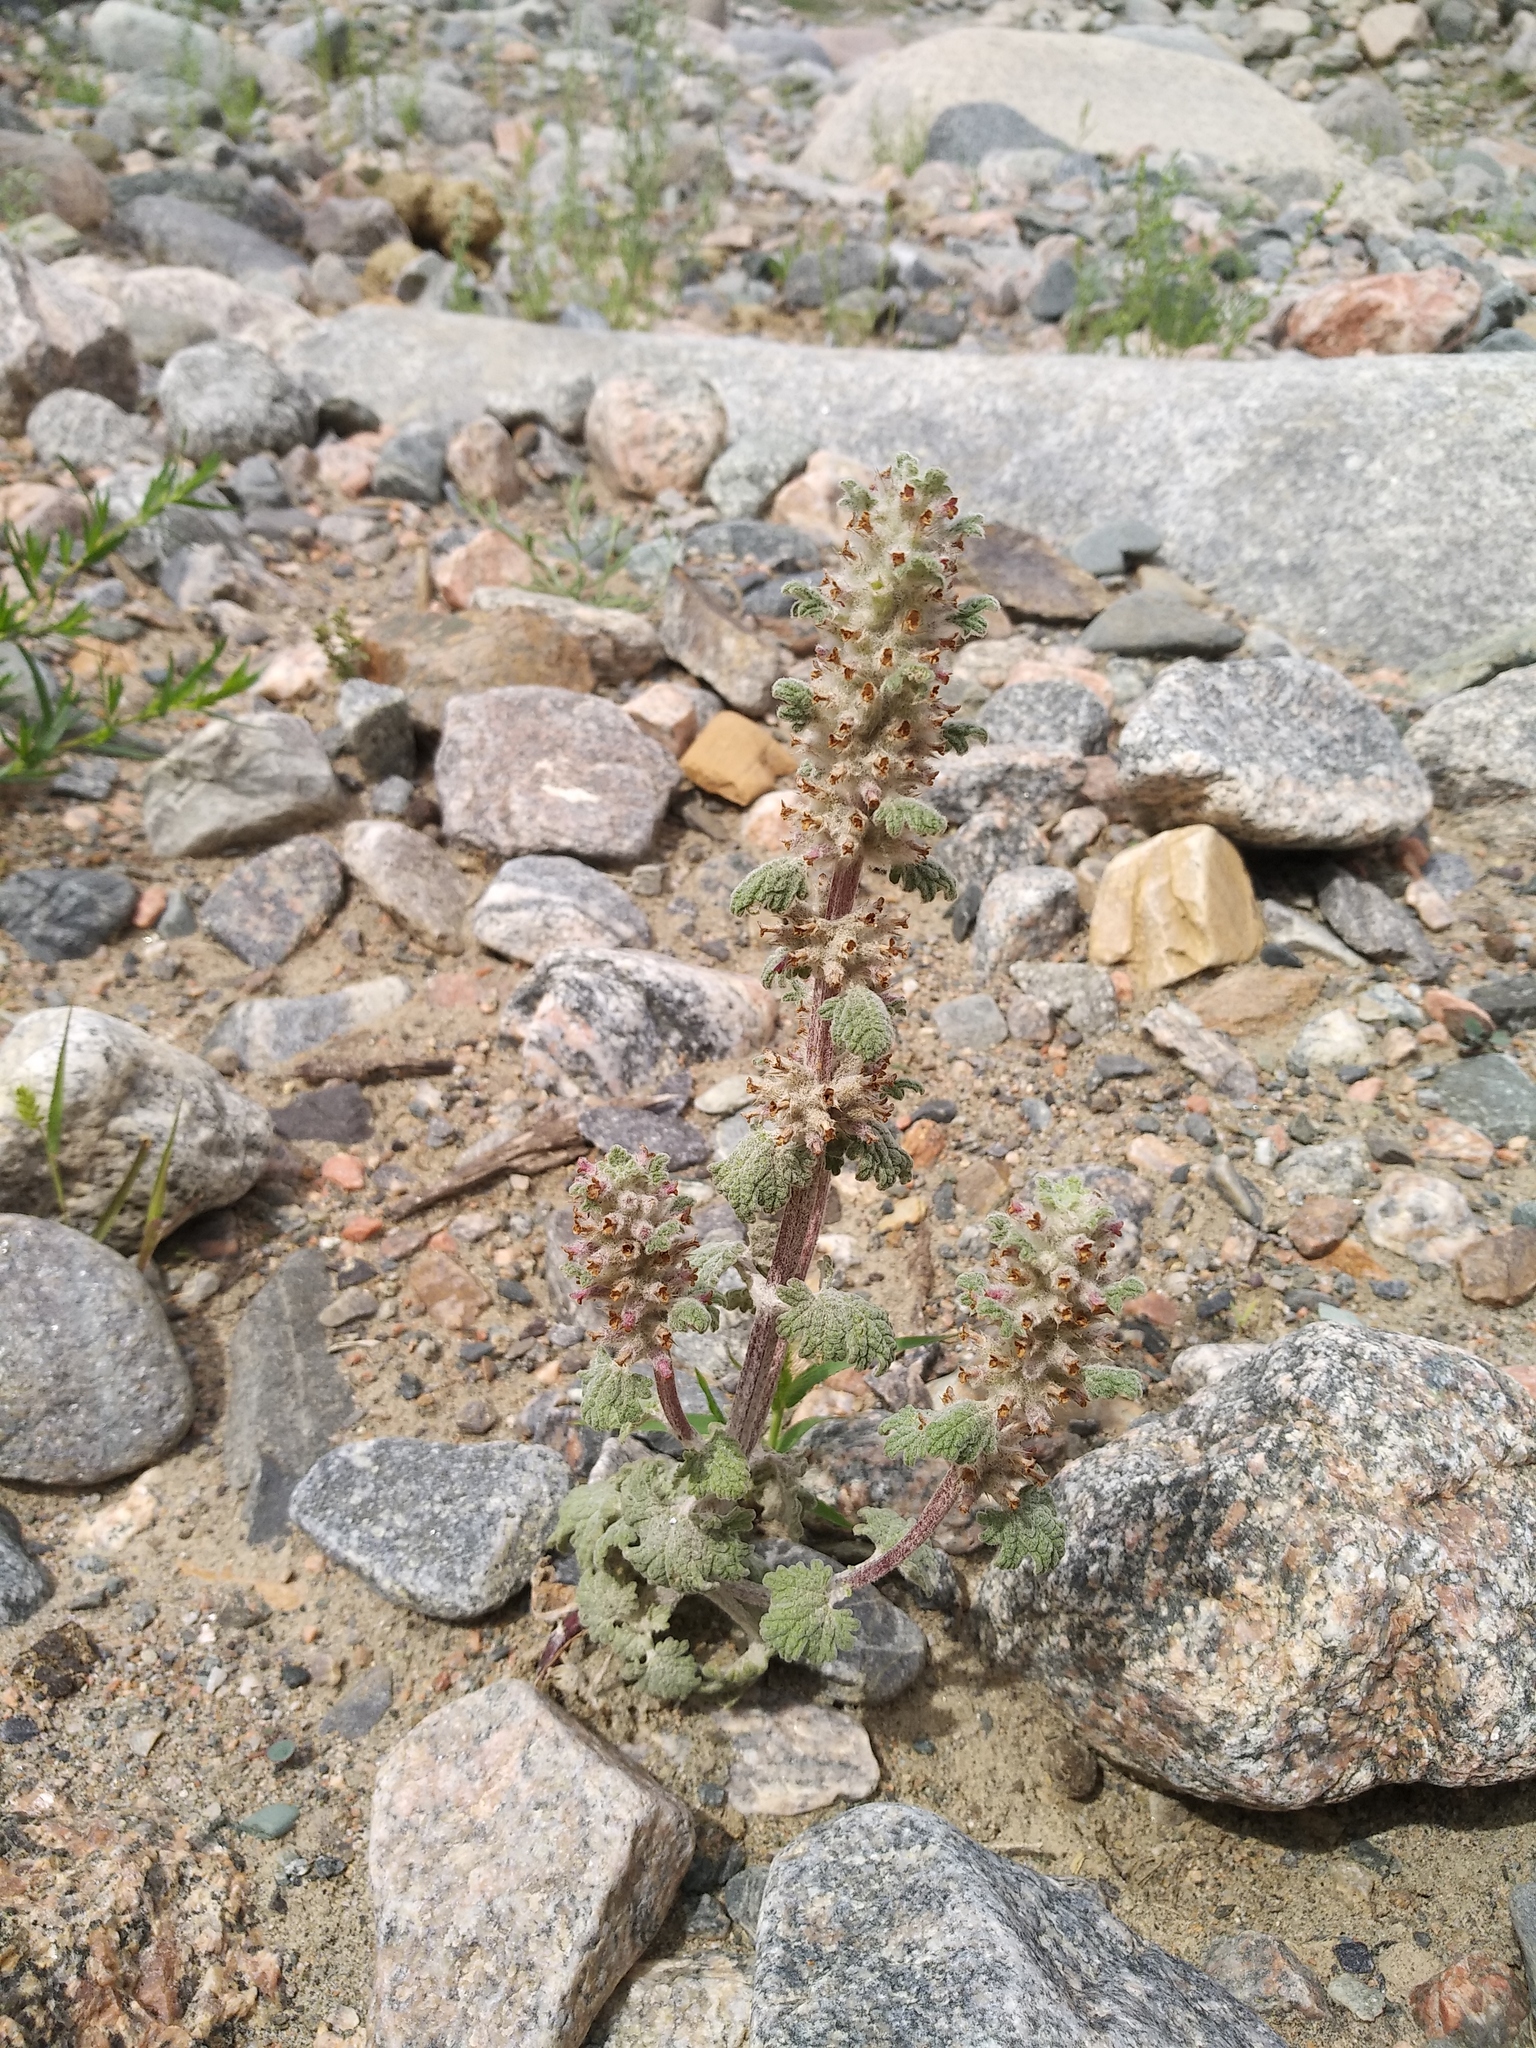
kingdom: Plantae
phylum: Tracheophyta
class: Magnoliopsida
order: Lamiales
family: Lamiaceae
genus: Lagopsis
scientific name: Lagopsis marrubiastrum
